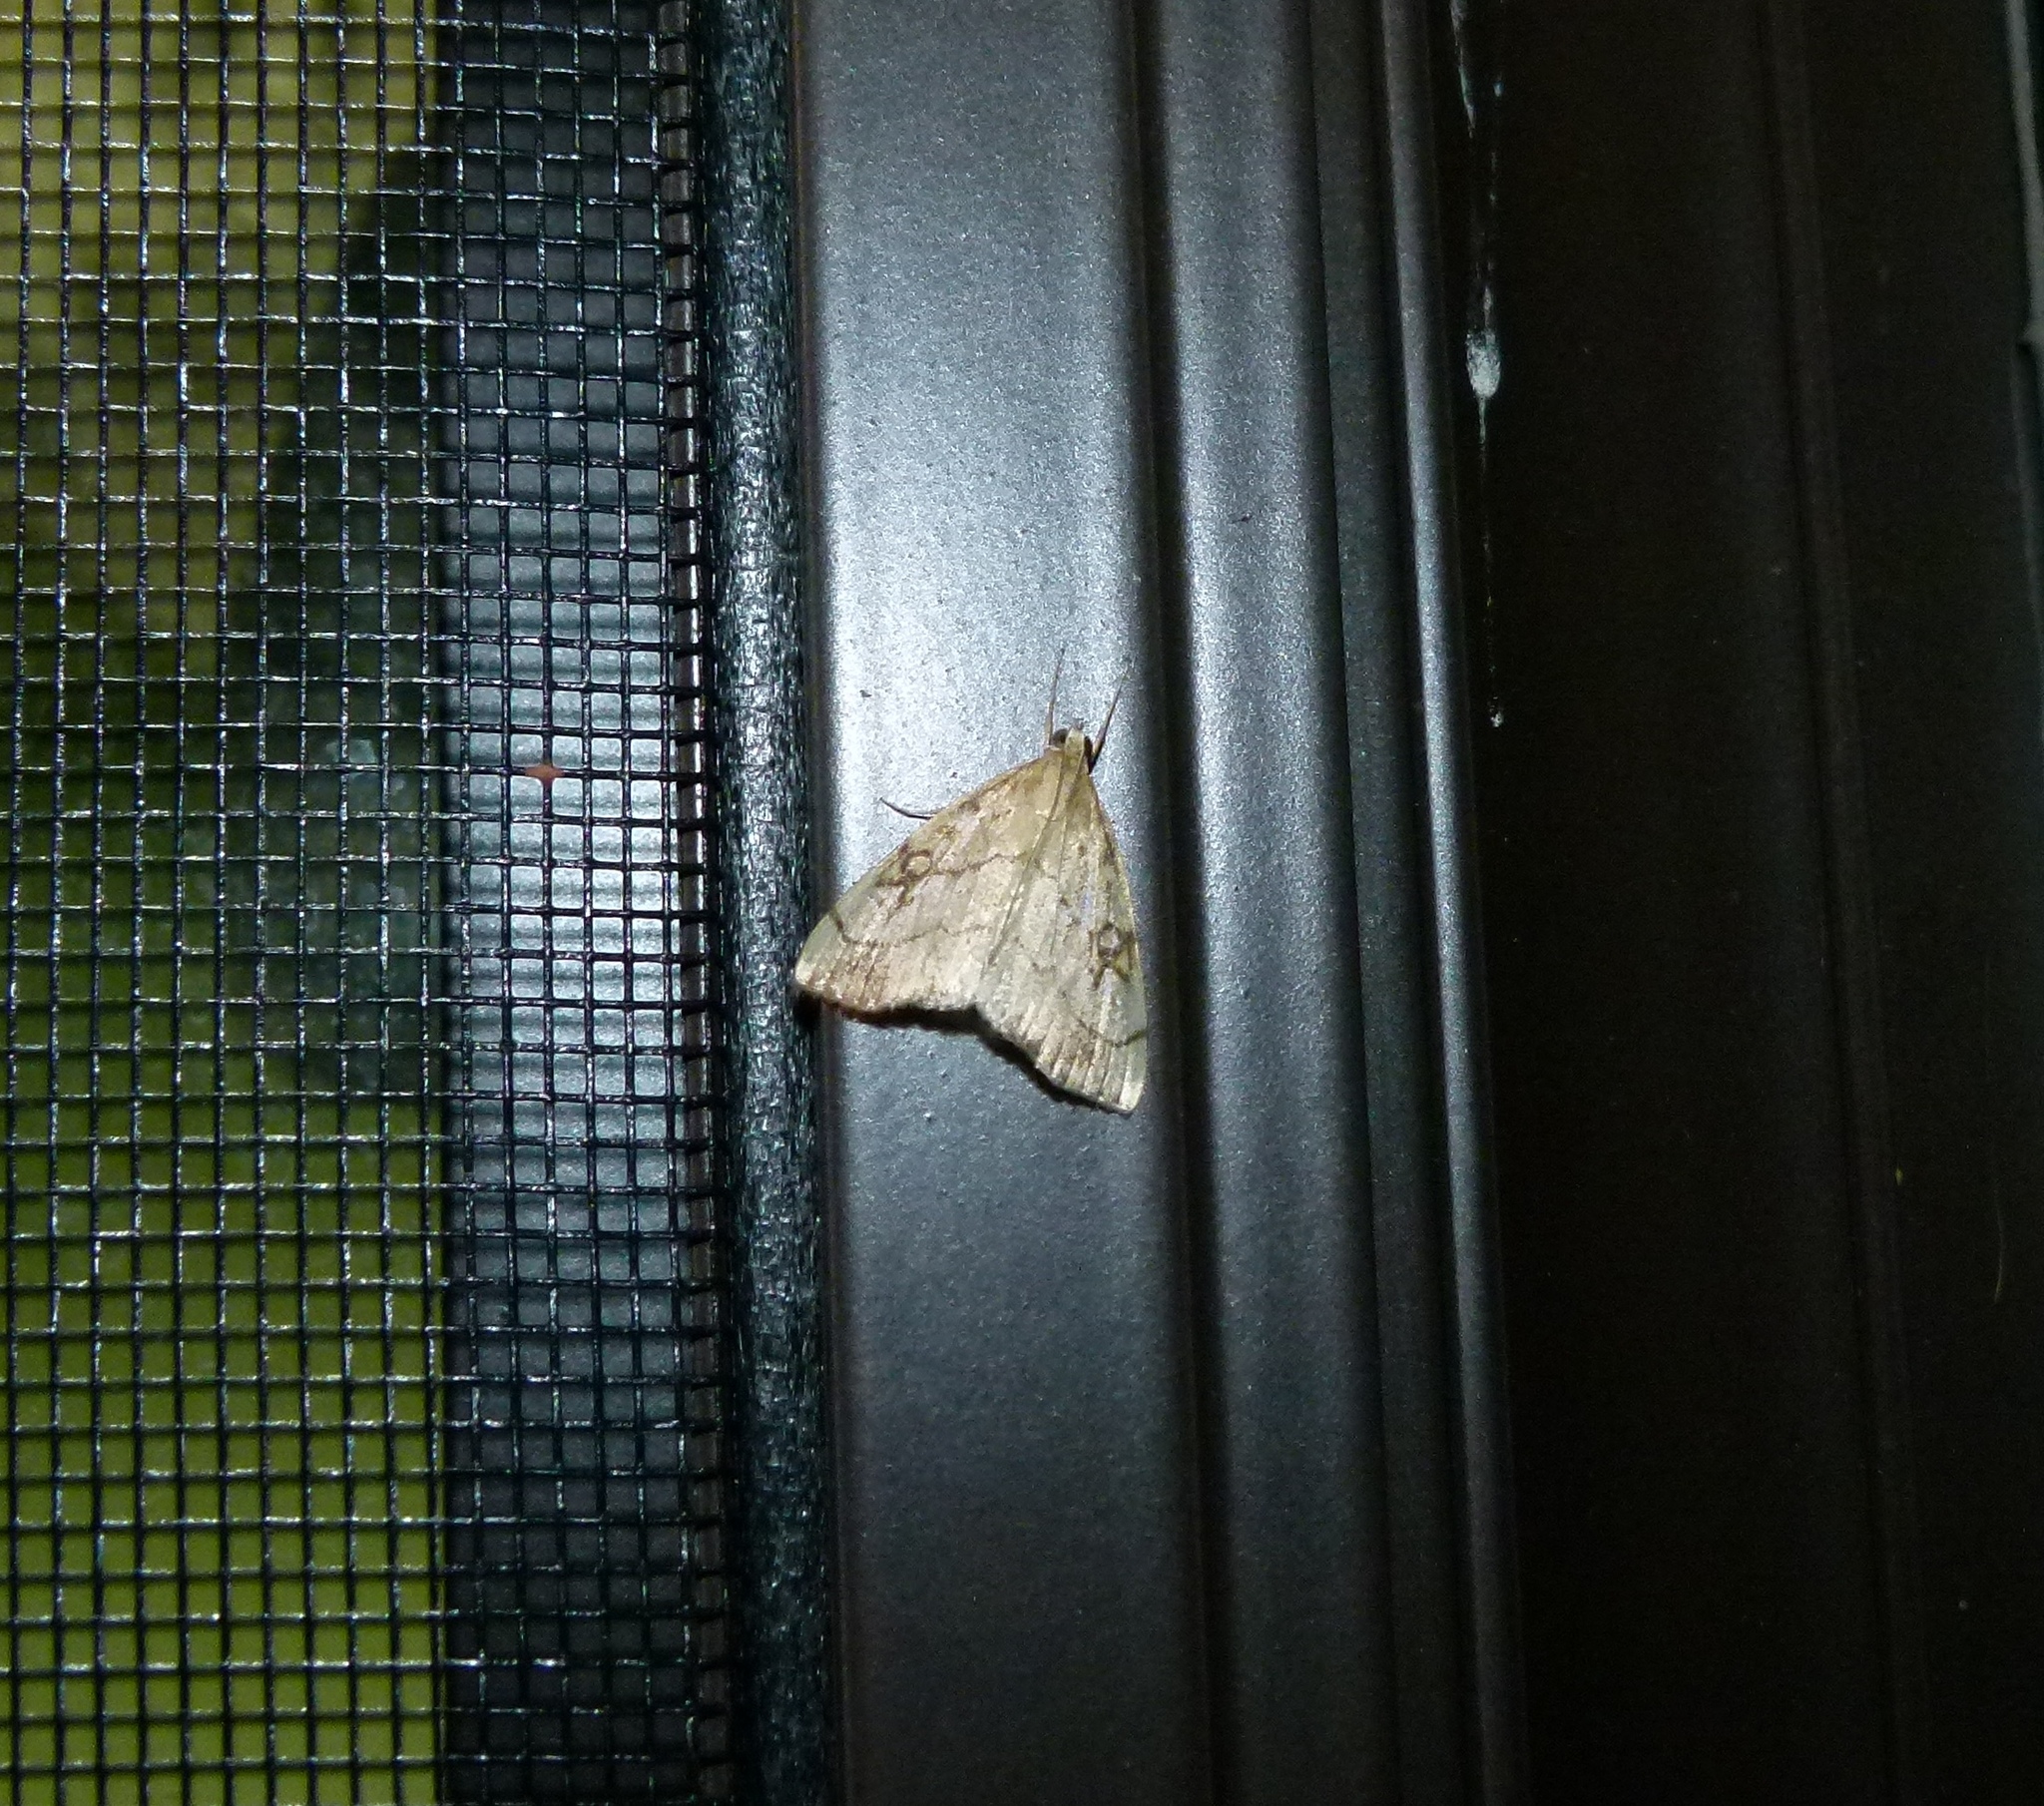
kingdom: Animalia
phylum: Arthropoda
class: Insecta
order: Lepidoptera
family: Crambidae
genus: Evergestis
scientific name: Evergestis pallidata
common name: Chequered pearl
